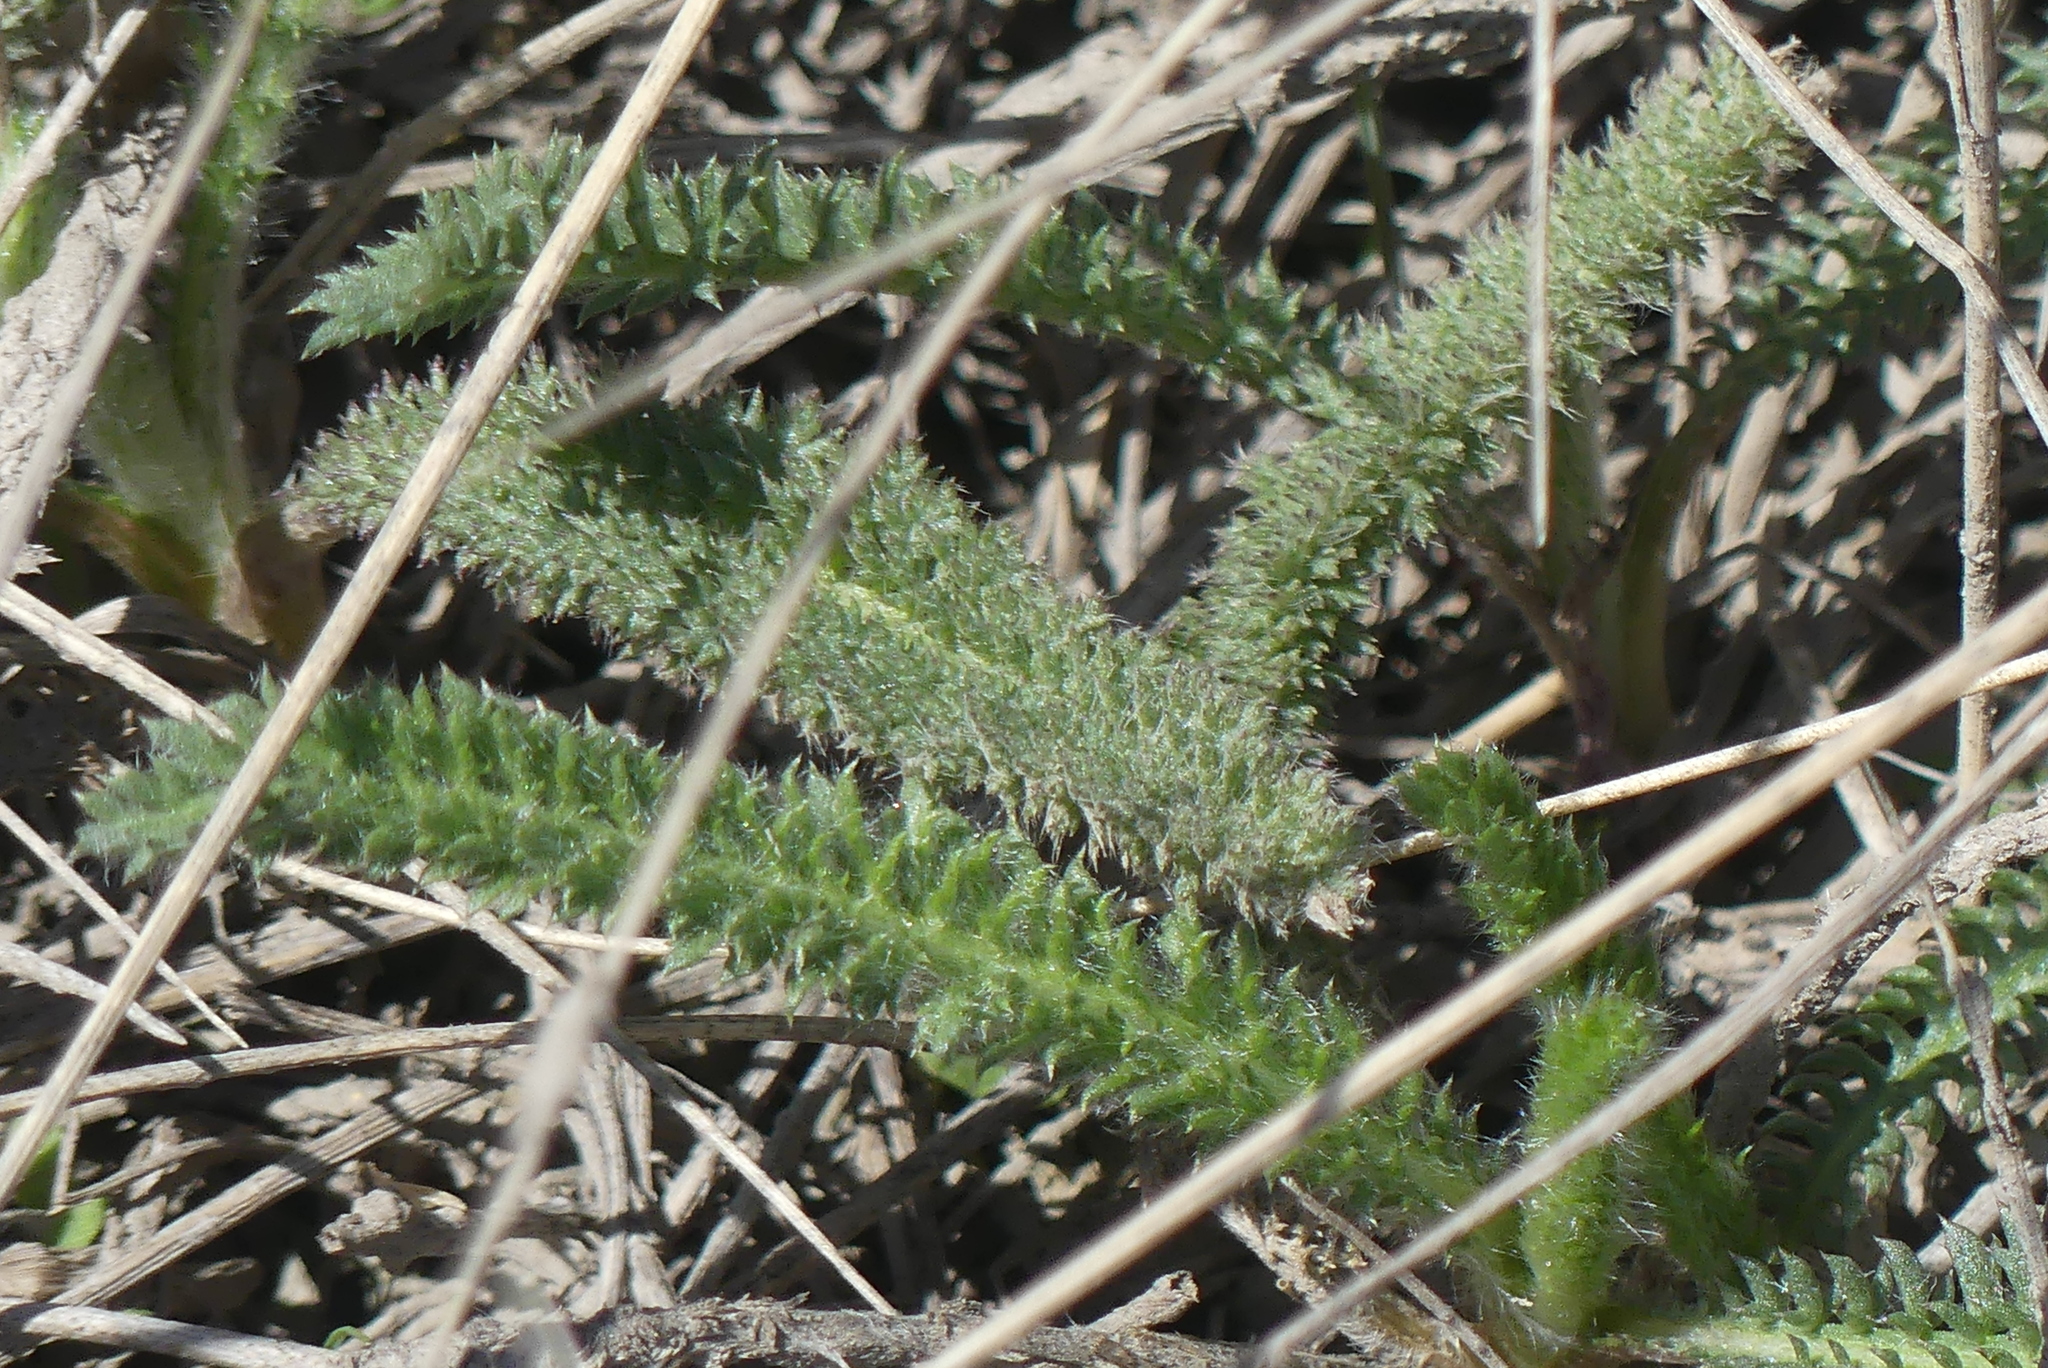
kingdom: Plantae
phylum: Tracheophyta
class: Magnoliopsida
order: Asterales
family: Asteraceae
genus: Achillea
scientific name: Achillea millefolium
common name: Yarrow
